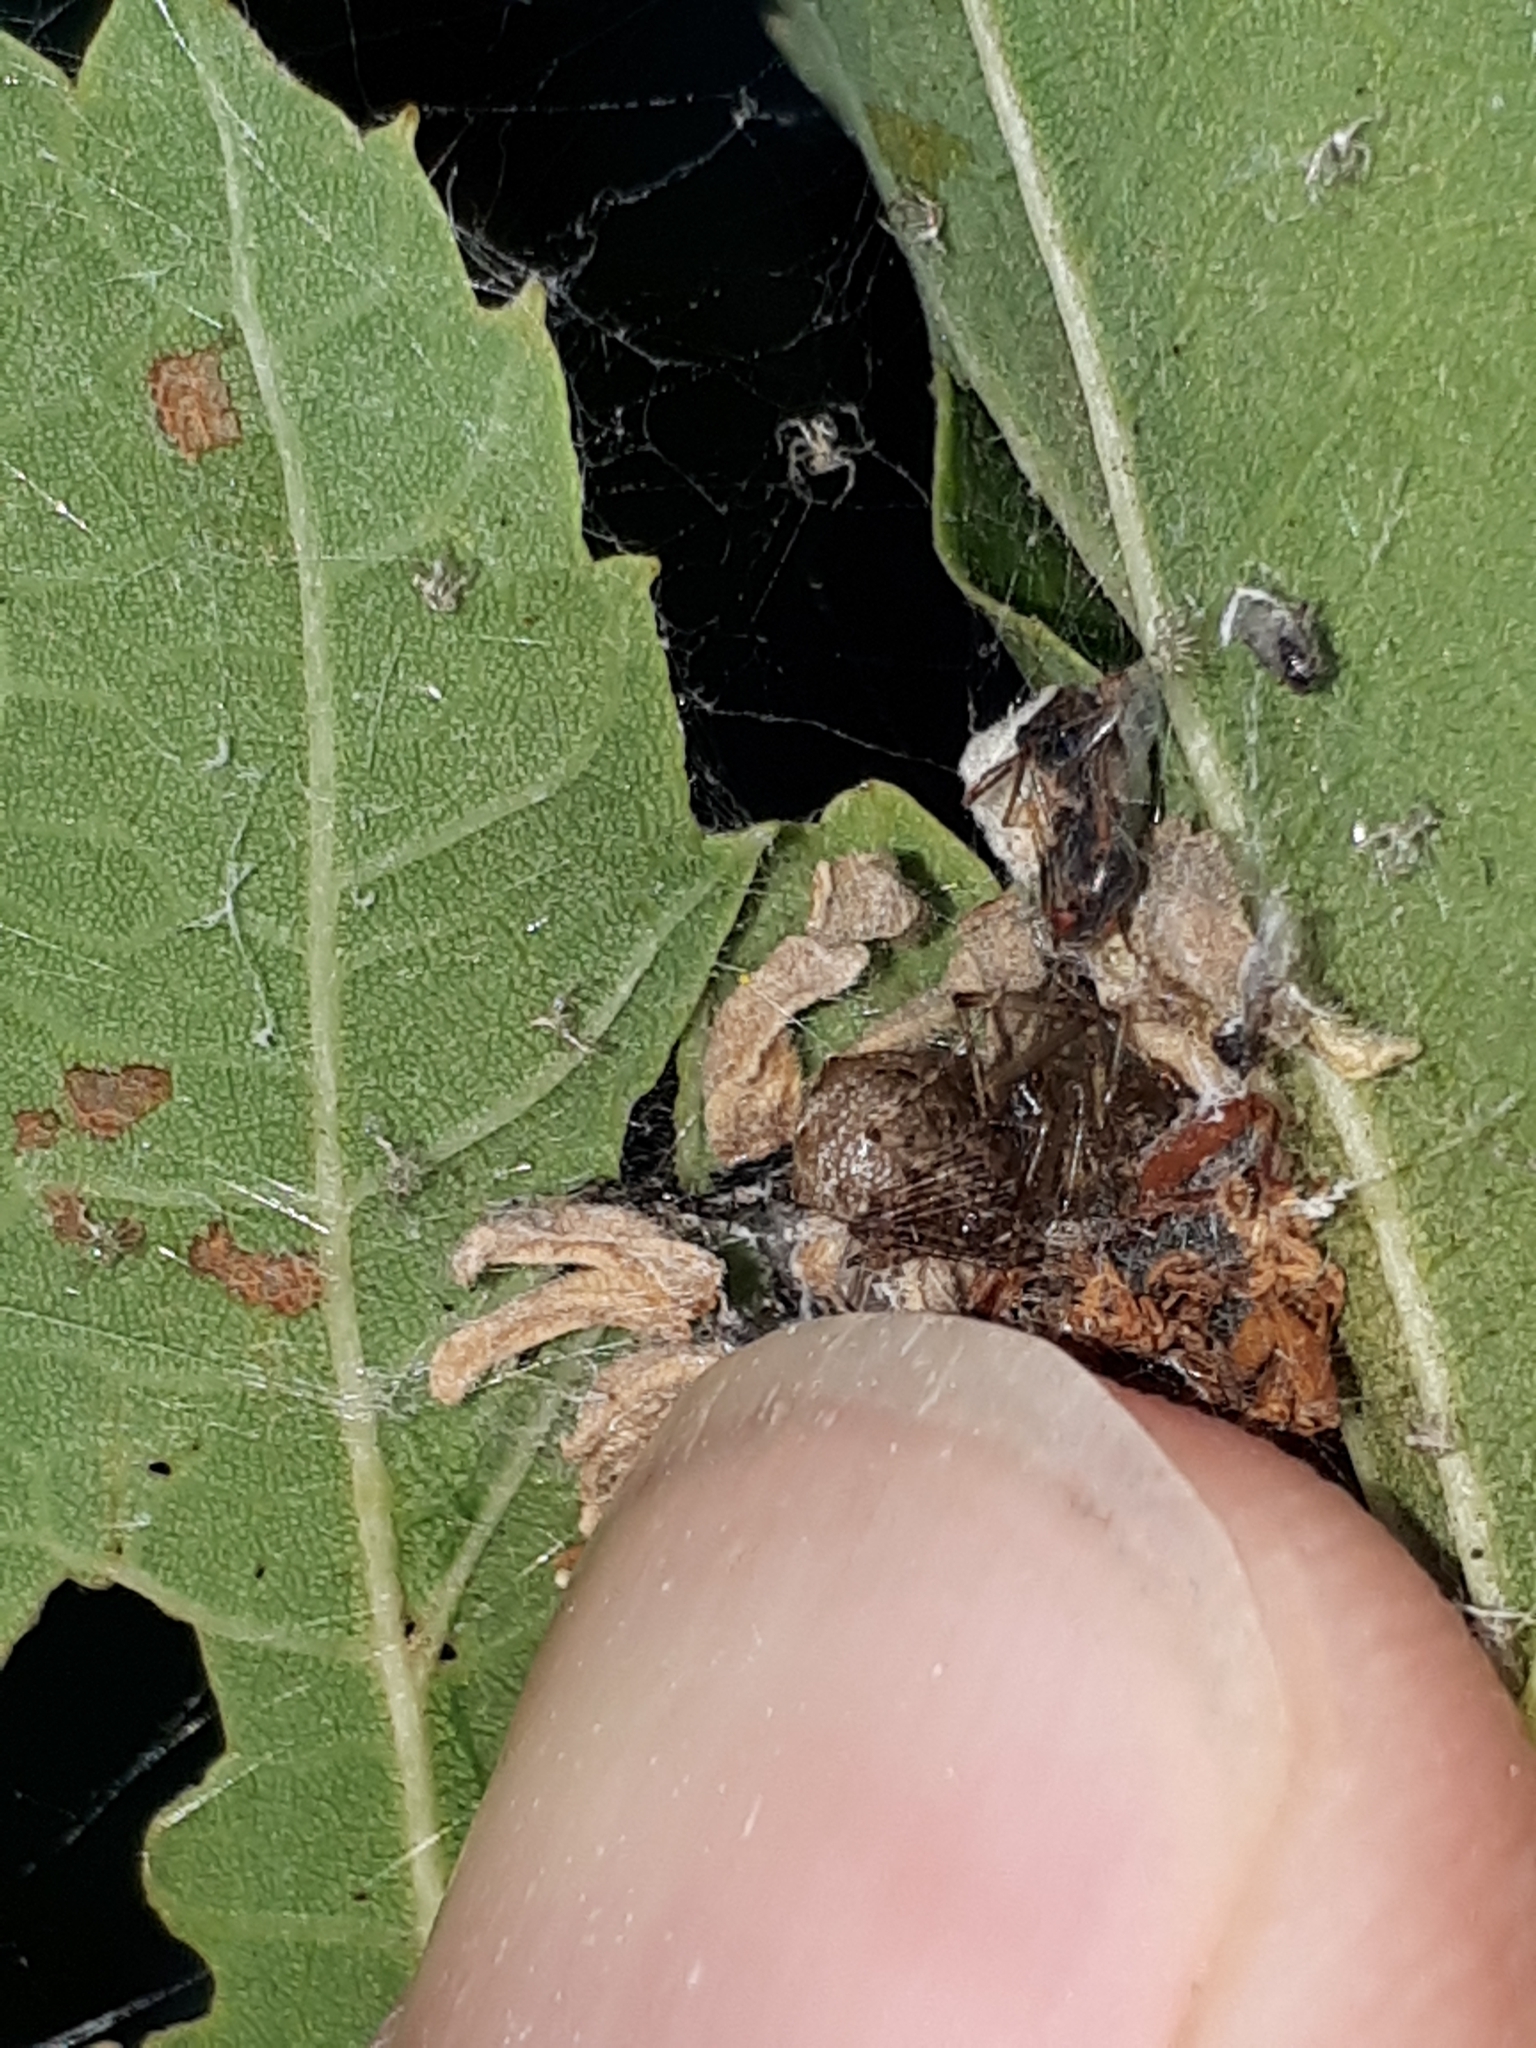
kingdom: Animalia
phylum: Arthropoda
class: Arachnida
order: Araneae
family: Mimetidae
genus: Ero
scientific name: Ero aphana
